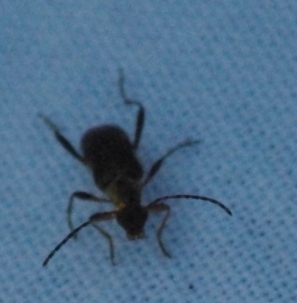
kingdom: Animalia
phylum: Arthropoda
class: Insecta
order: Coleoptera
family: Cerambycidae
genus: Grammoptera
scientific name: Grammoptera ruficornis
